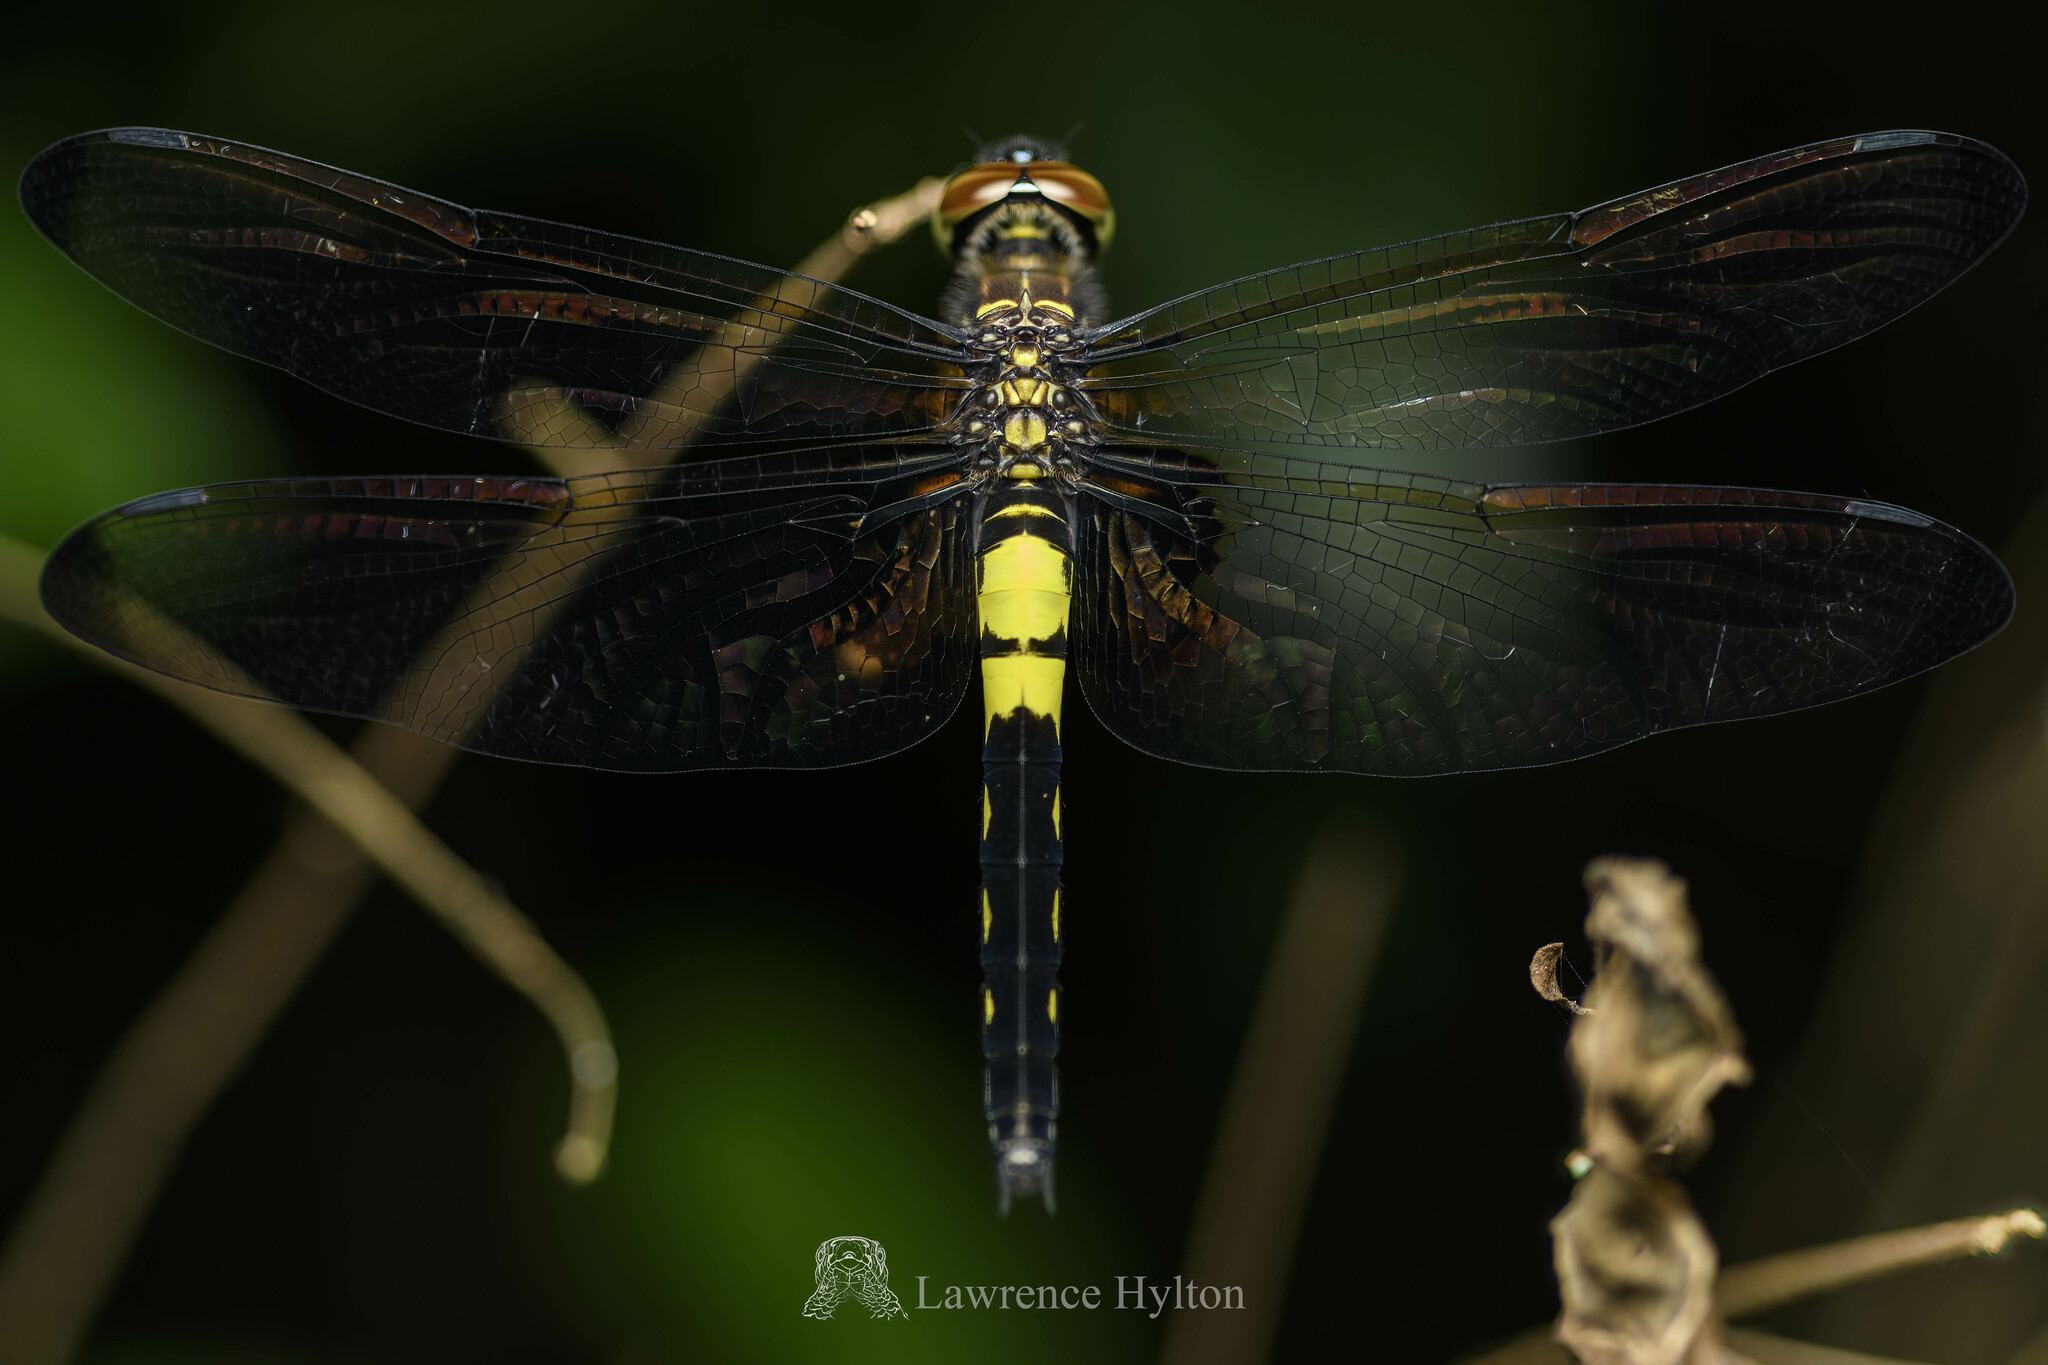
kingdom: Animalia
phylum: Arthropoda
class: Insecta
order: Odonata
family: Libellulidae
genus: Pseudothemis
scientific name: Pseudothemis zonata
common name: Pied skimmer
